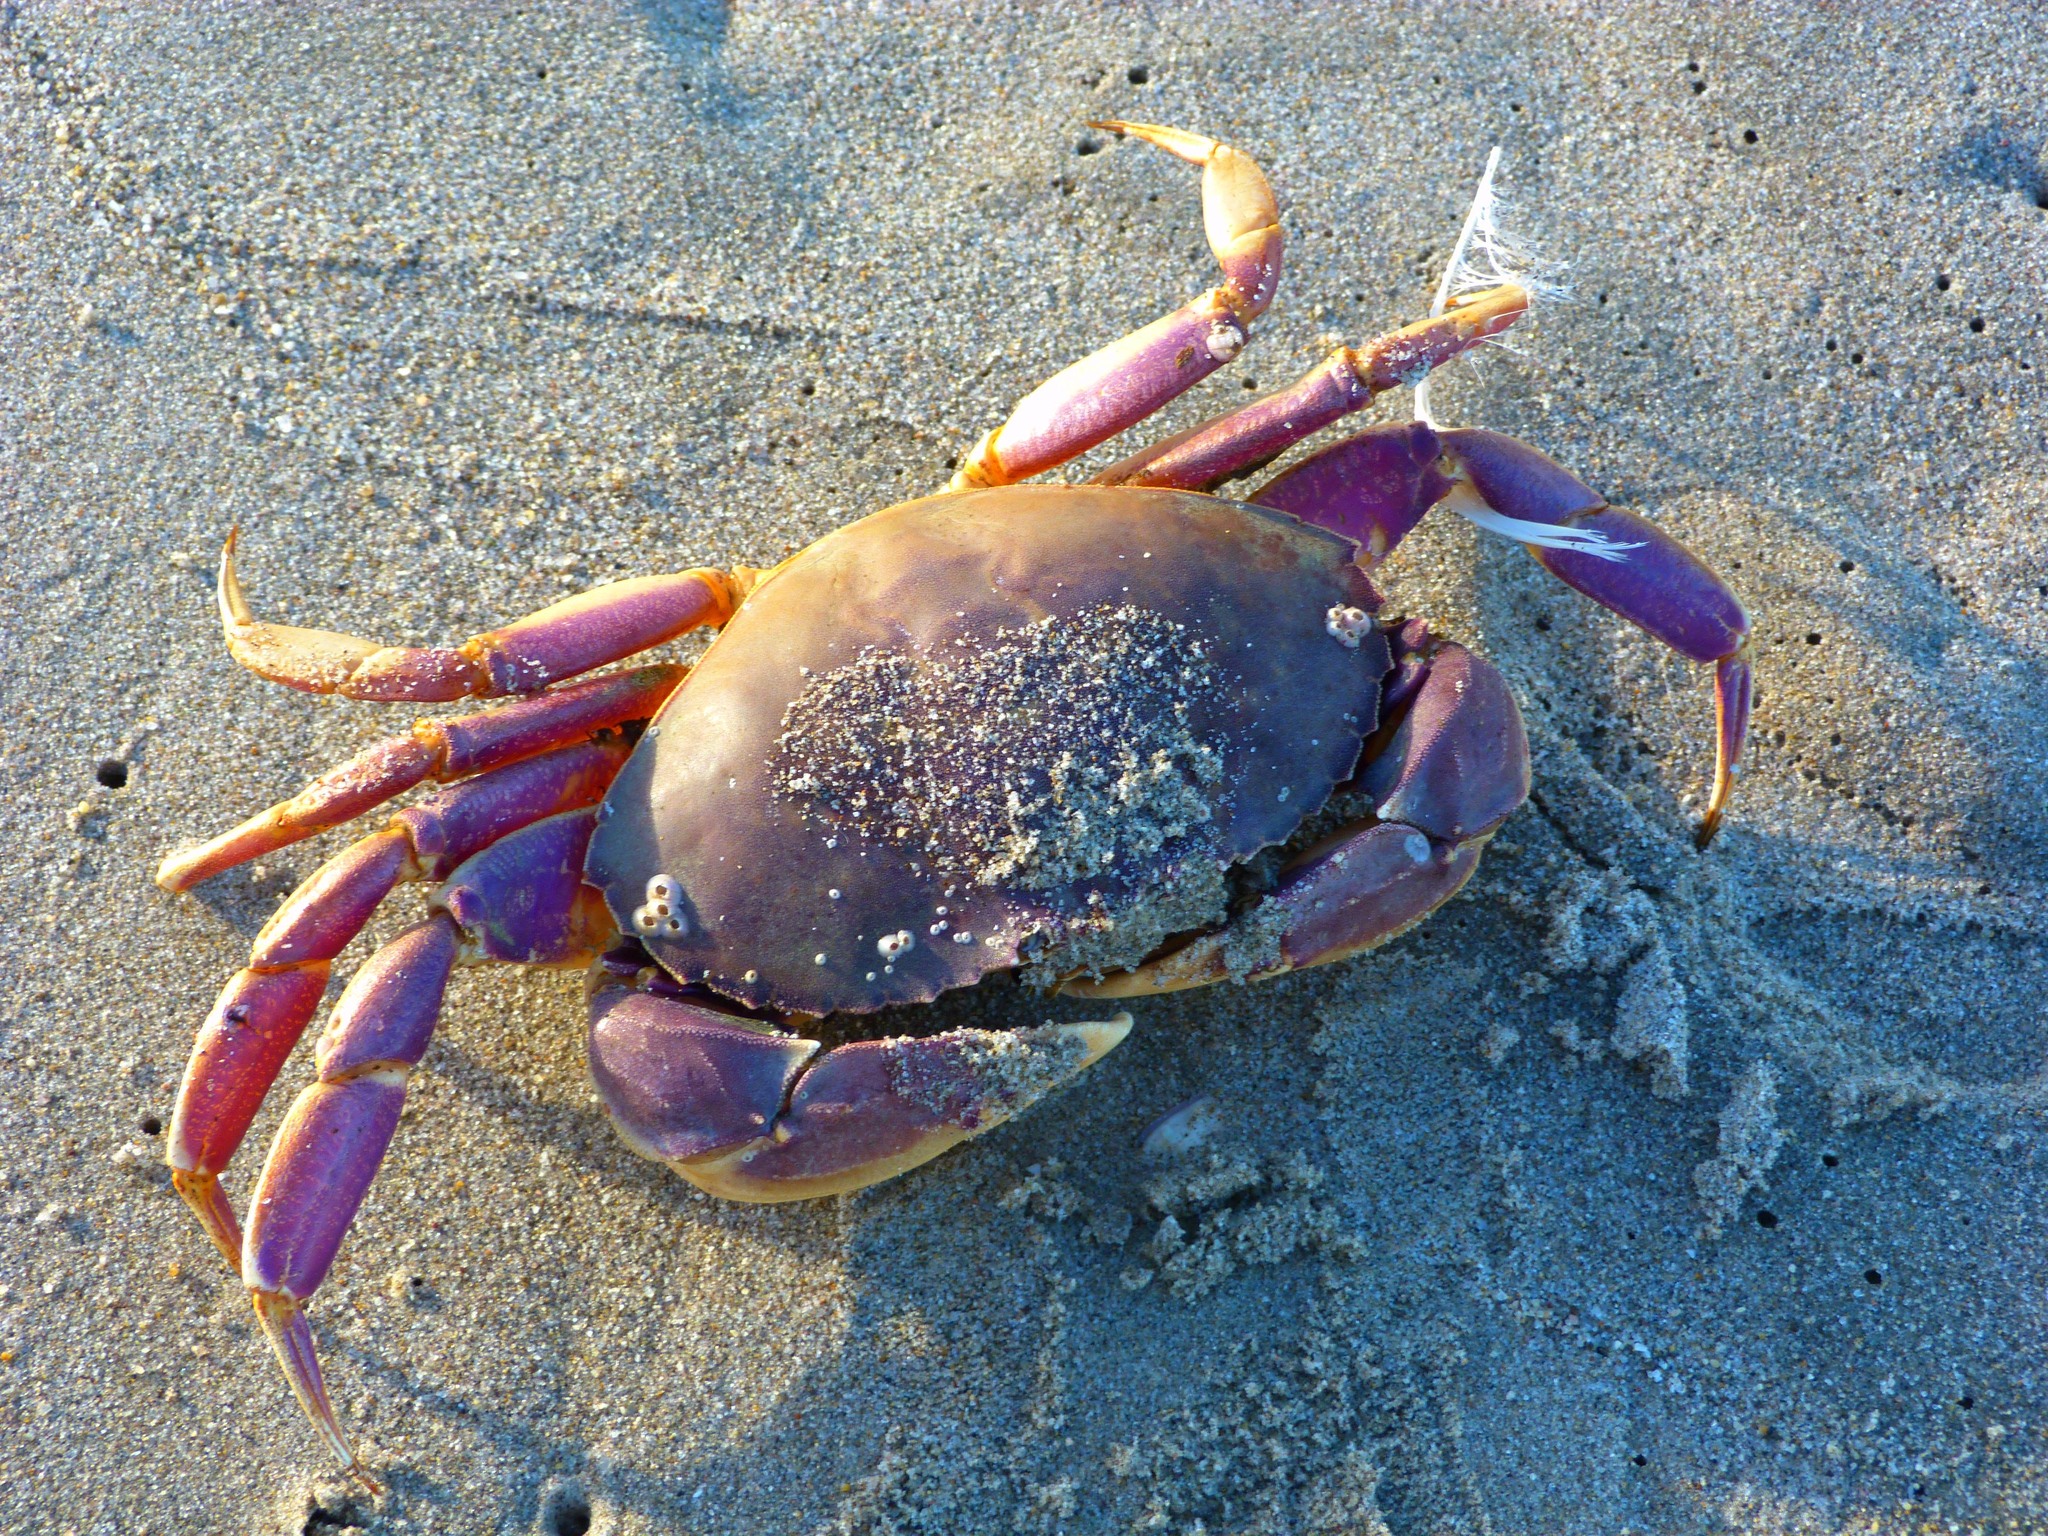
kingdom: Animalia
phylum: Arthropoda
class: Malacostraca
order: Decapoda
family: Cancridae
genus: Metacarcinus
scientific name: Metacarcinus gracilis
